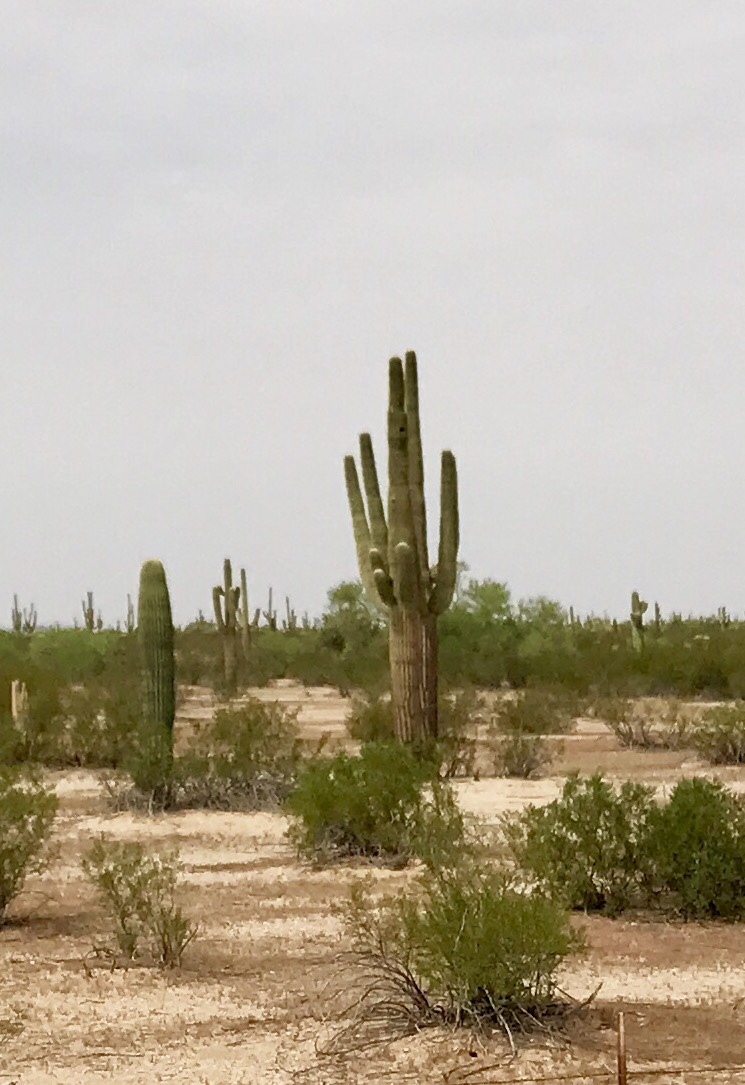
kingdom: Plantae
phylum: Tracheophyta
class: Magnoliopsida
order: Caryophyllales
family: Cactaceae
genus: Carnegiea
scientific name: Carnegiea gigantea
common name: Saguaro
